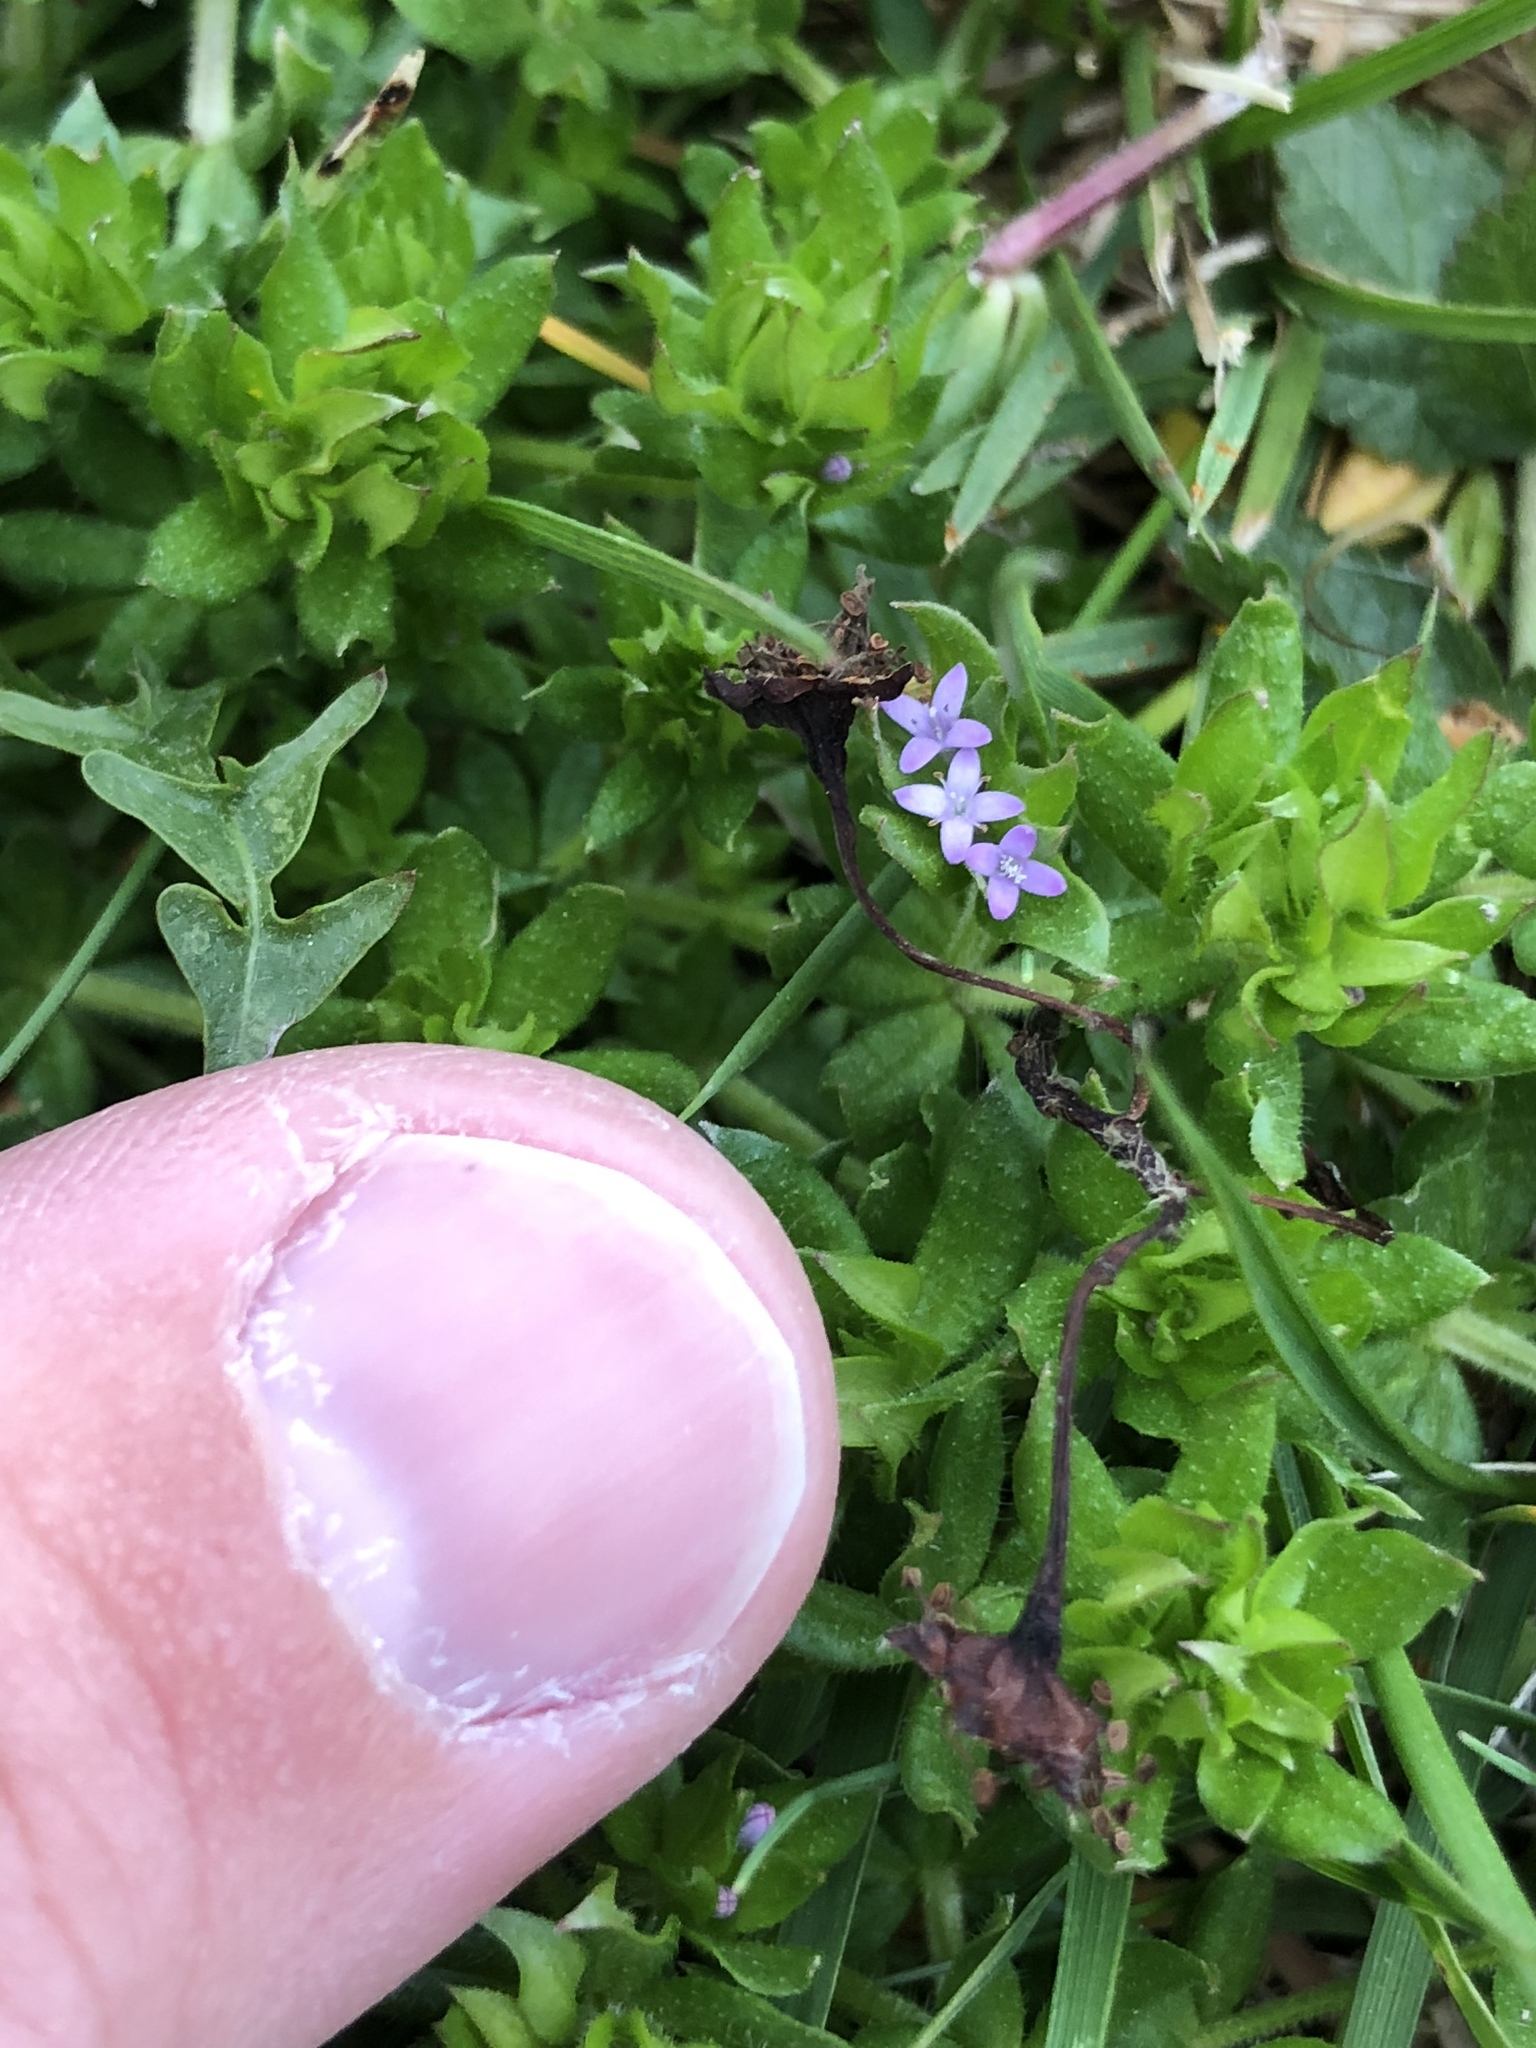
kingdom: Plantae
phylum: Tracheophyta
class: Magnoliopsida
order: Gentianales
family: Rubiaceae
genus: Sherardia
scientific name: Sherardia arvensis
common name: Field madder
